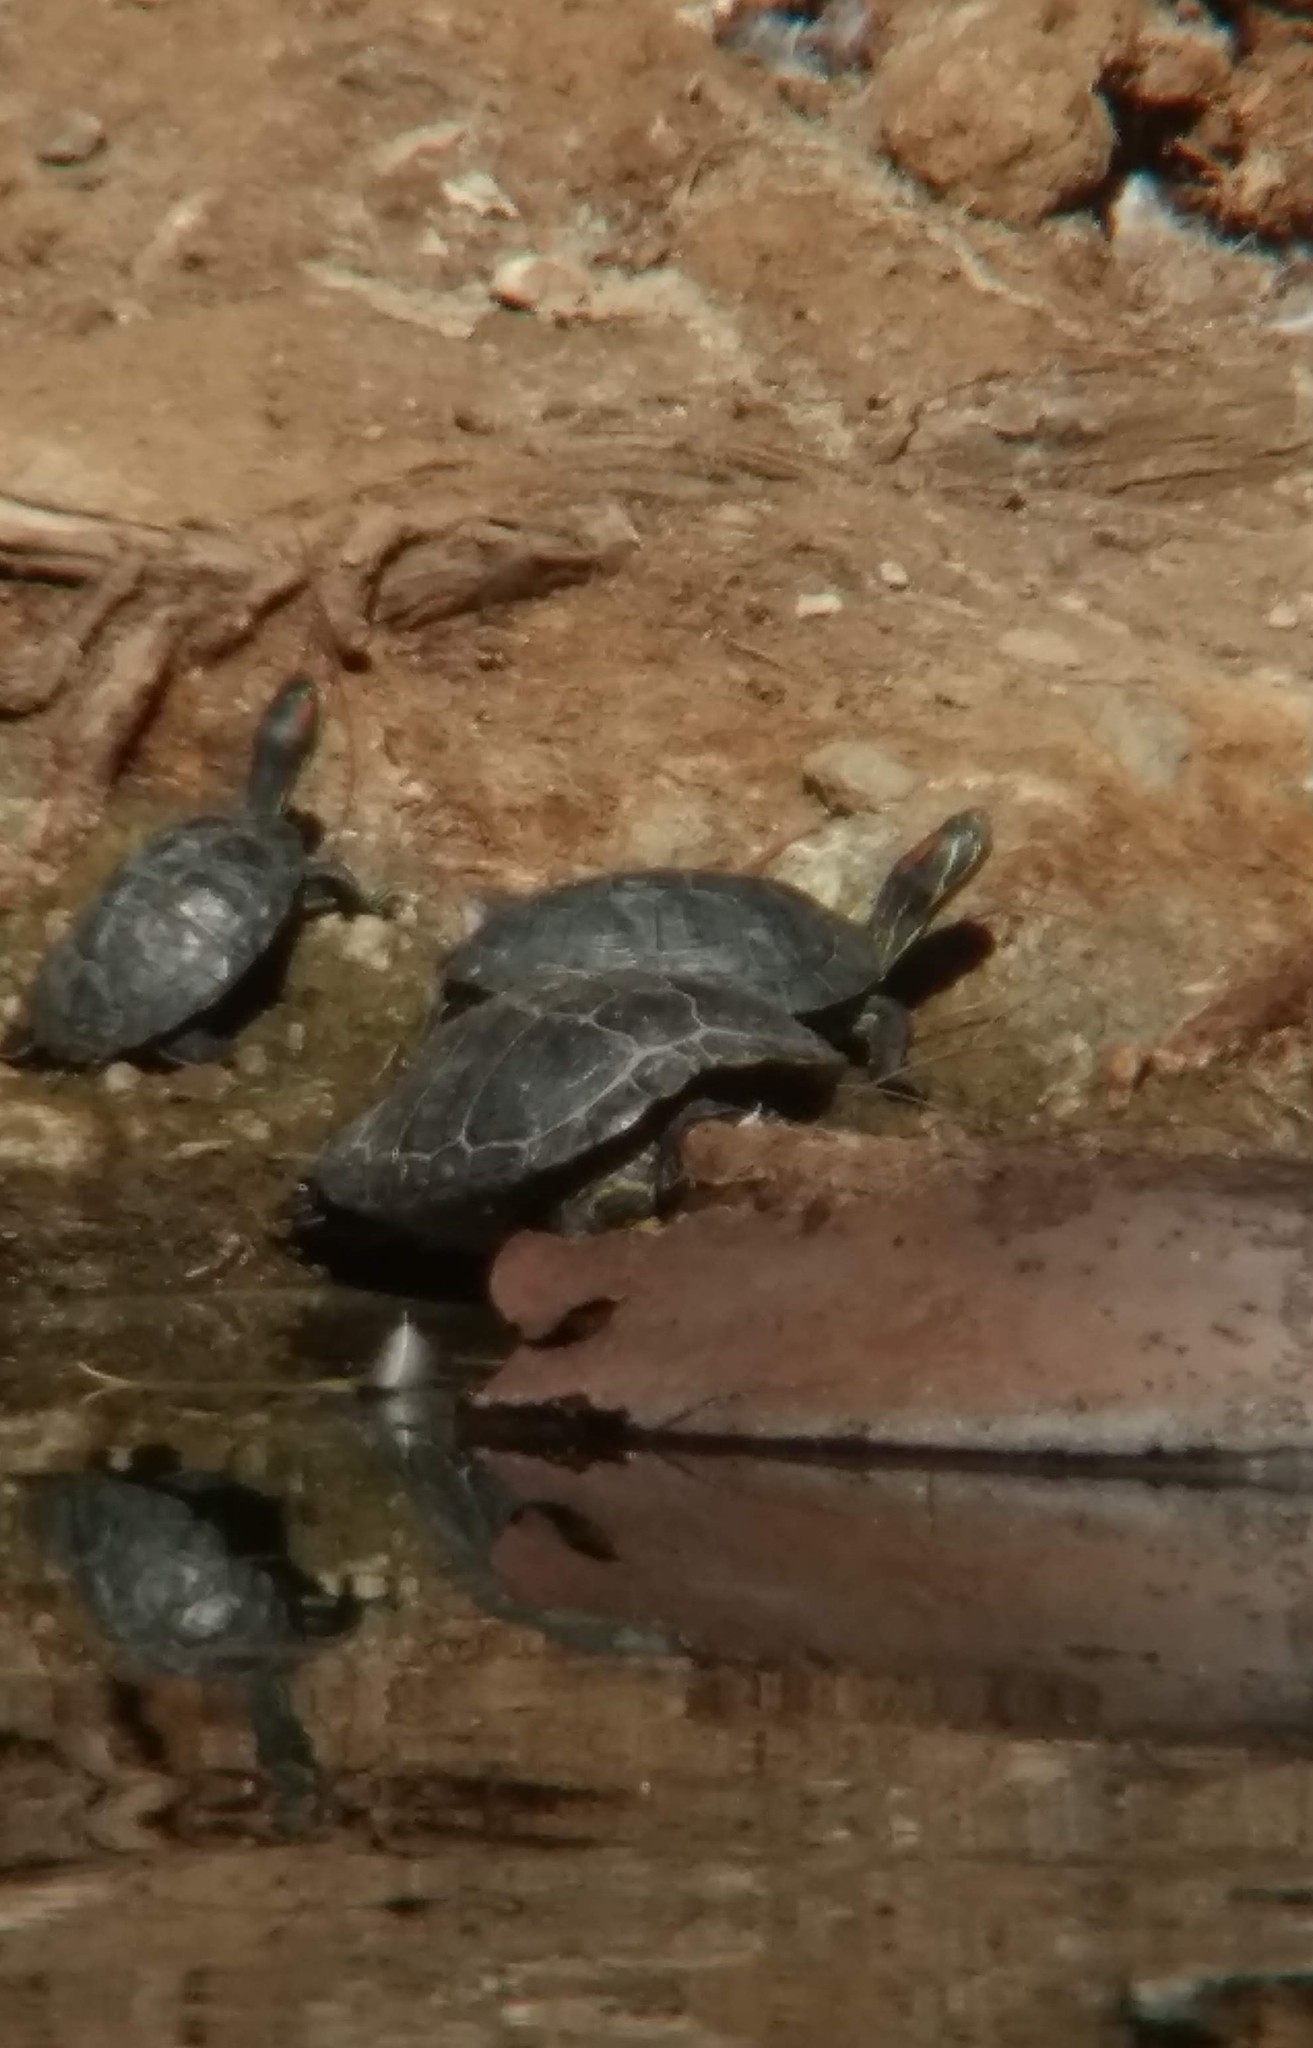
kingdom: Animalia
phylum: Chordata
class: Testudines
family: Emydidae
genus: Trachemys
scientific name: Trachemys scripta
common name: Slider
